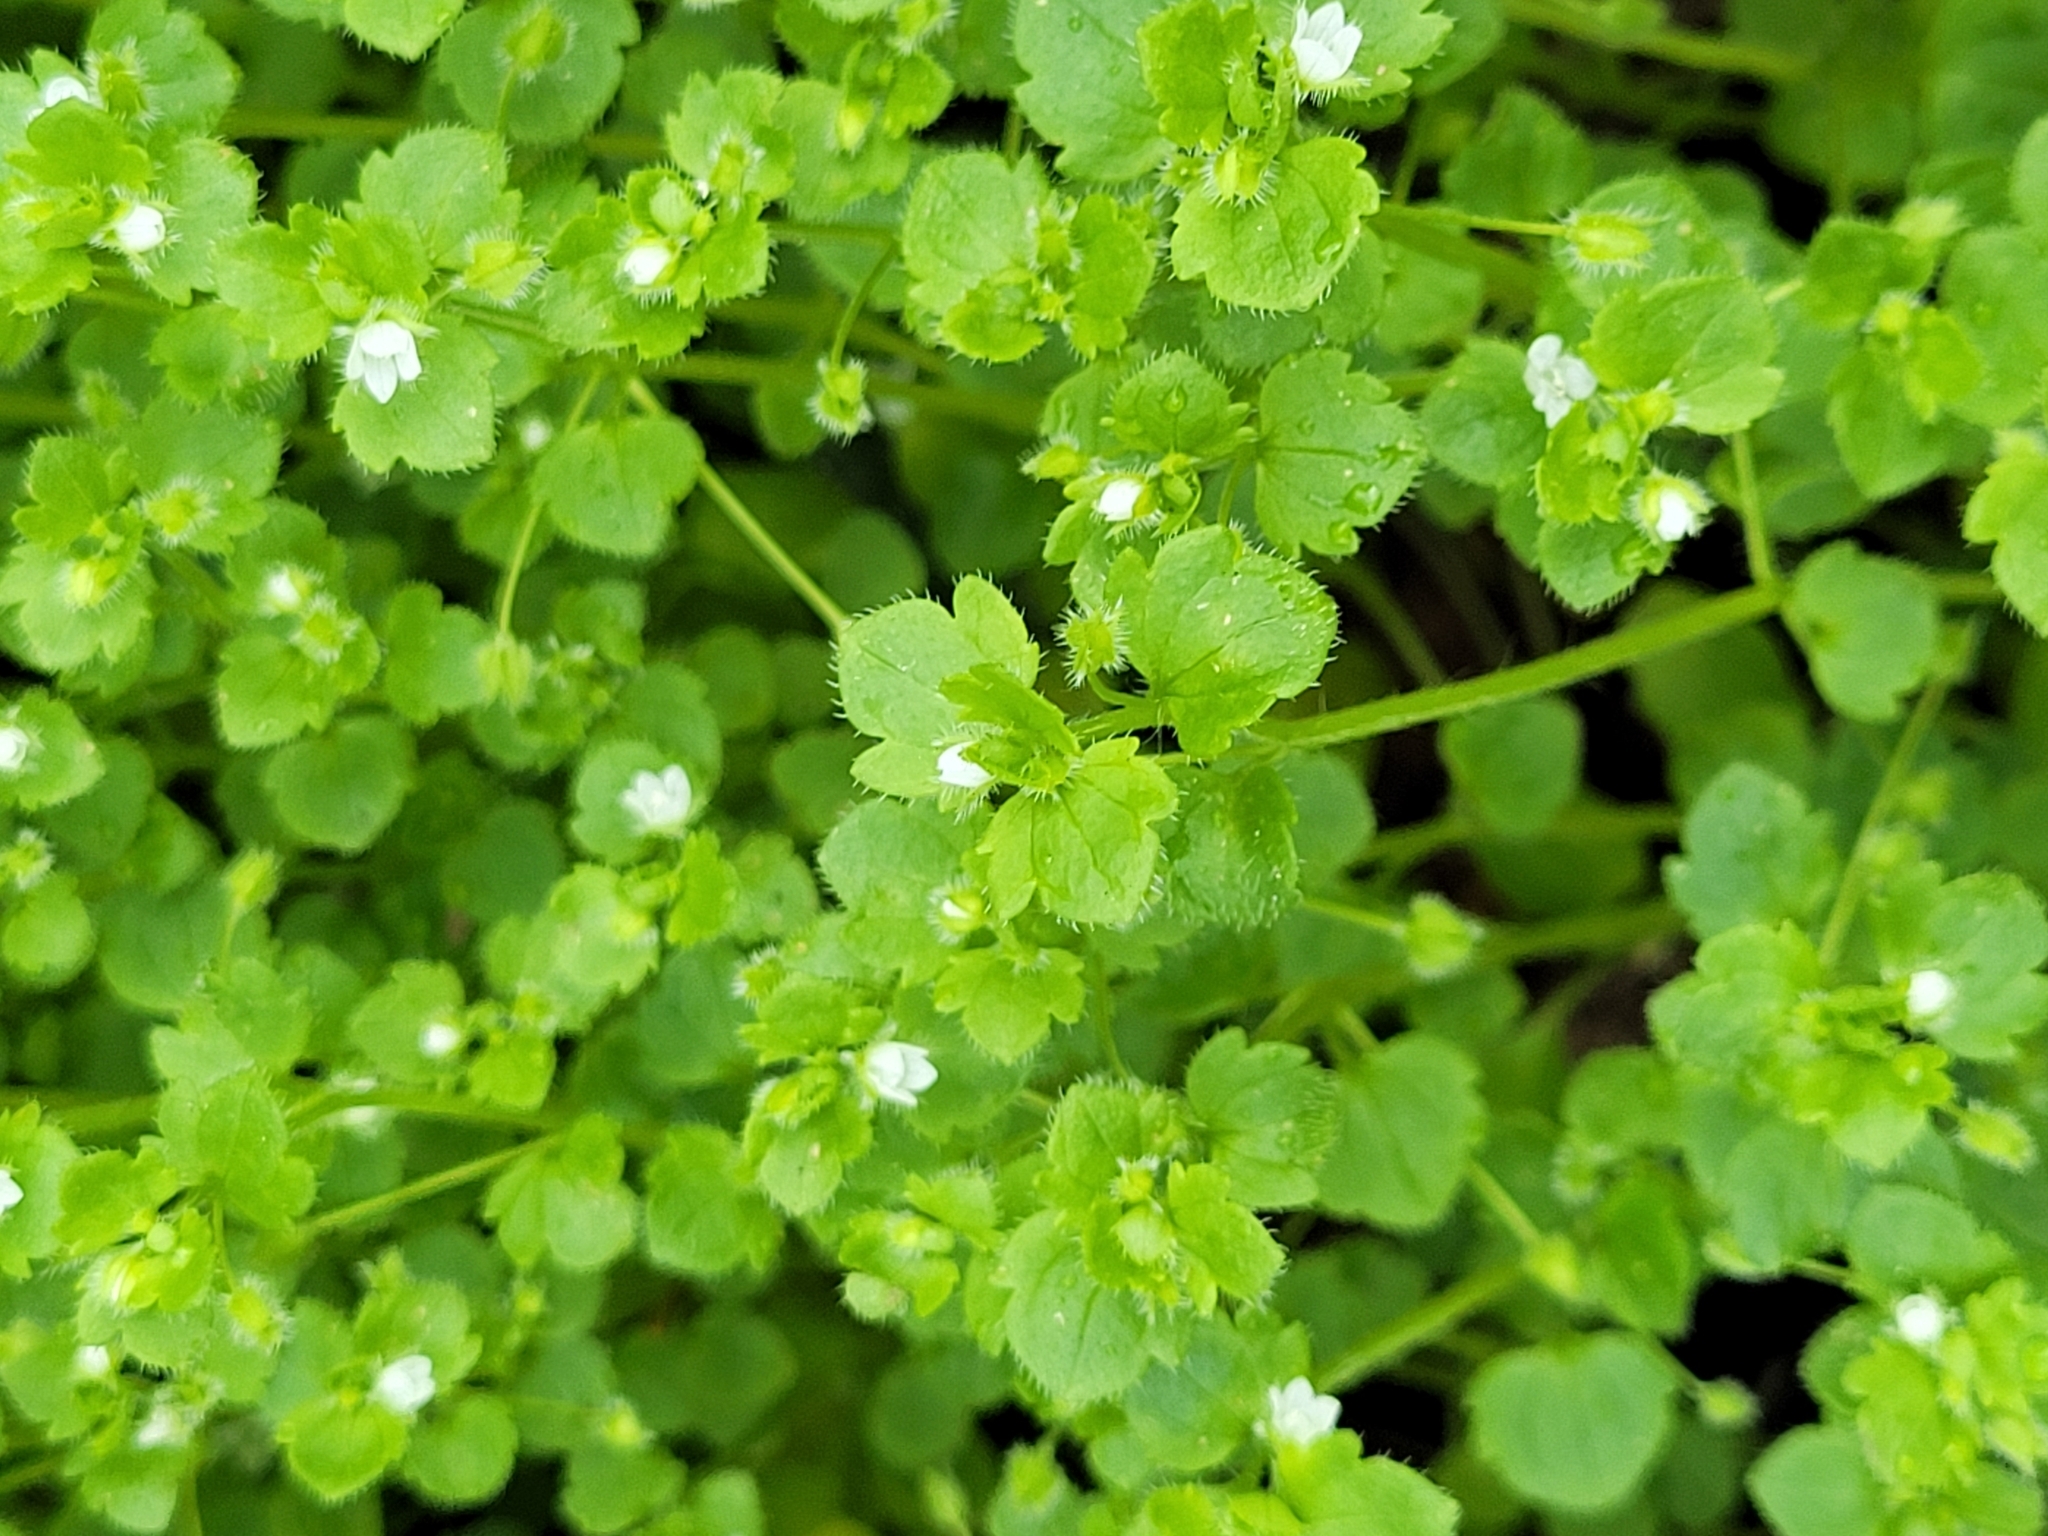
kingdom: Plantae
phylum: Tracheophyta
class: Magnoliopsida
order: Lamiales
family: Plantaginaceae
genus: Veronica
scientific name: Veronica sublobata
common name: False ivy-leaved speedwell
